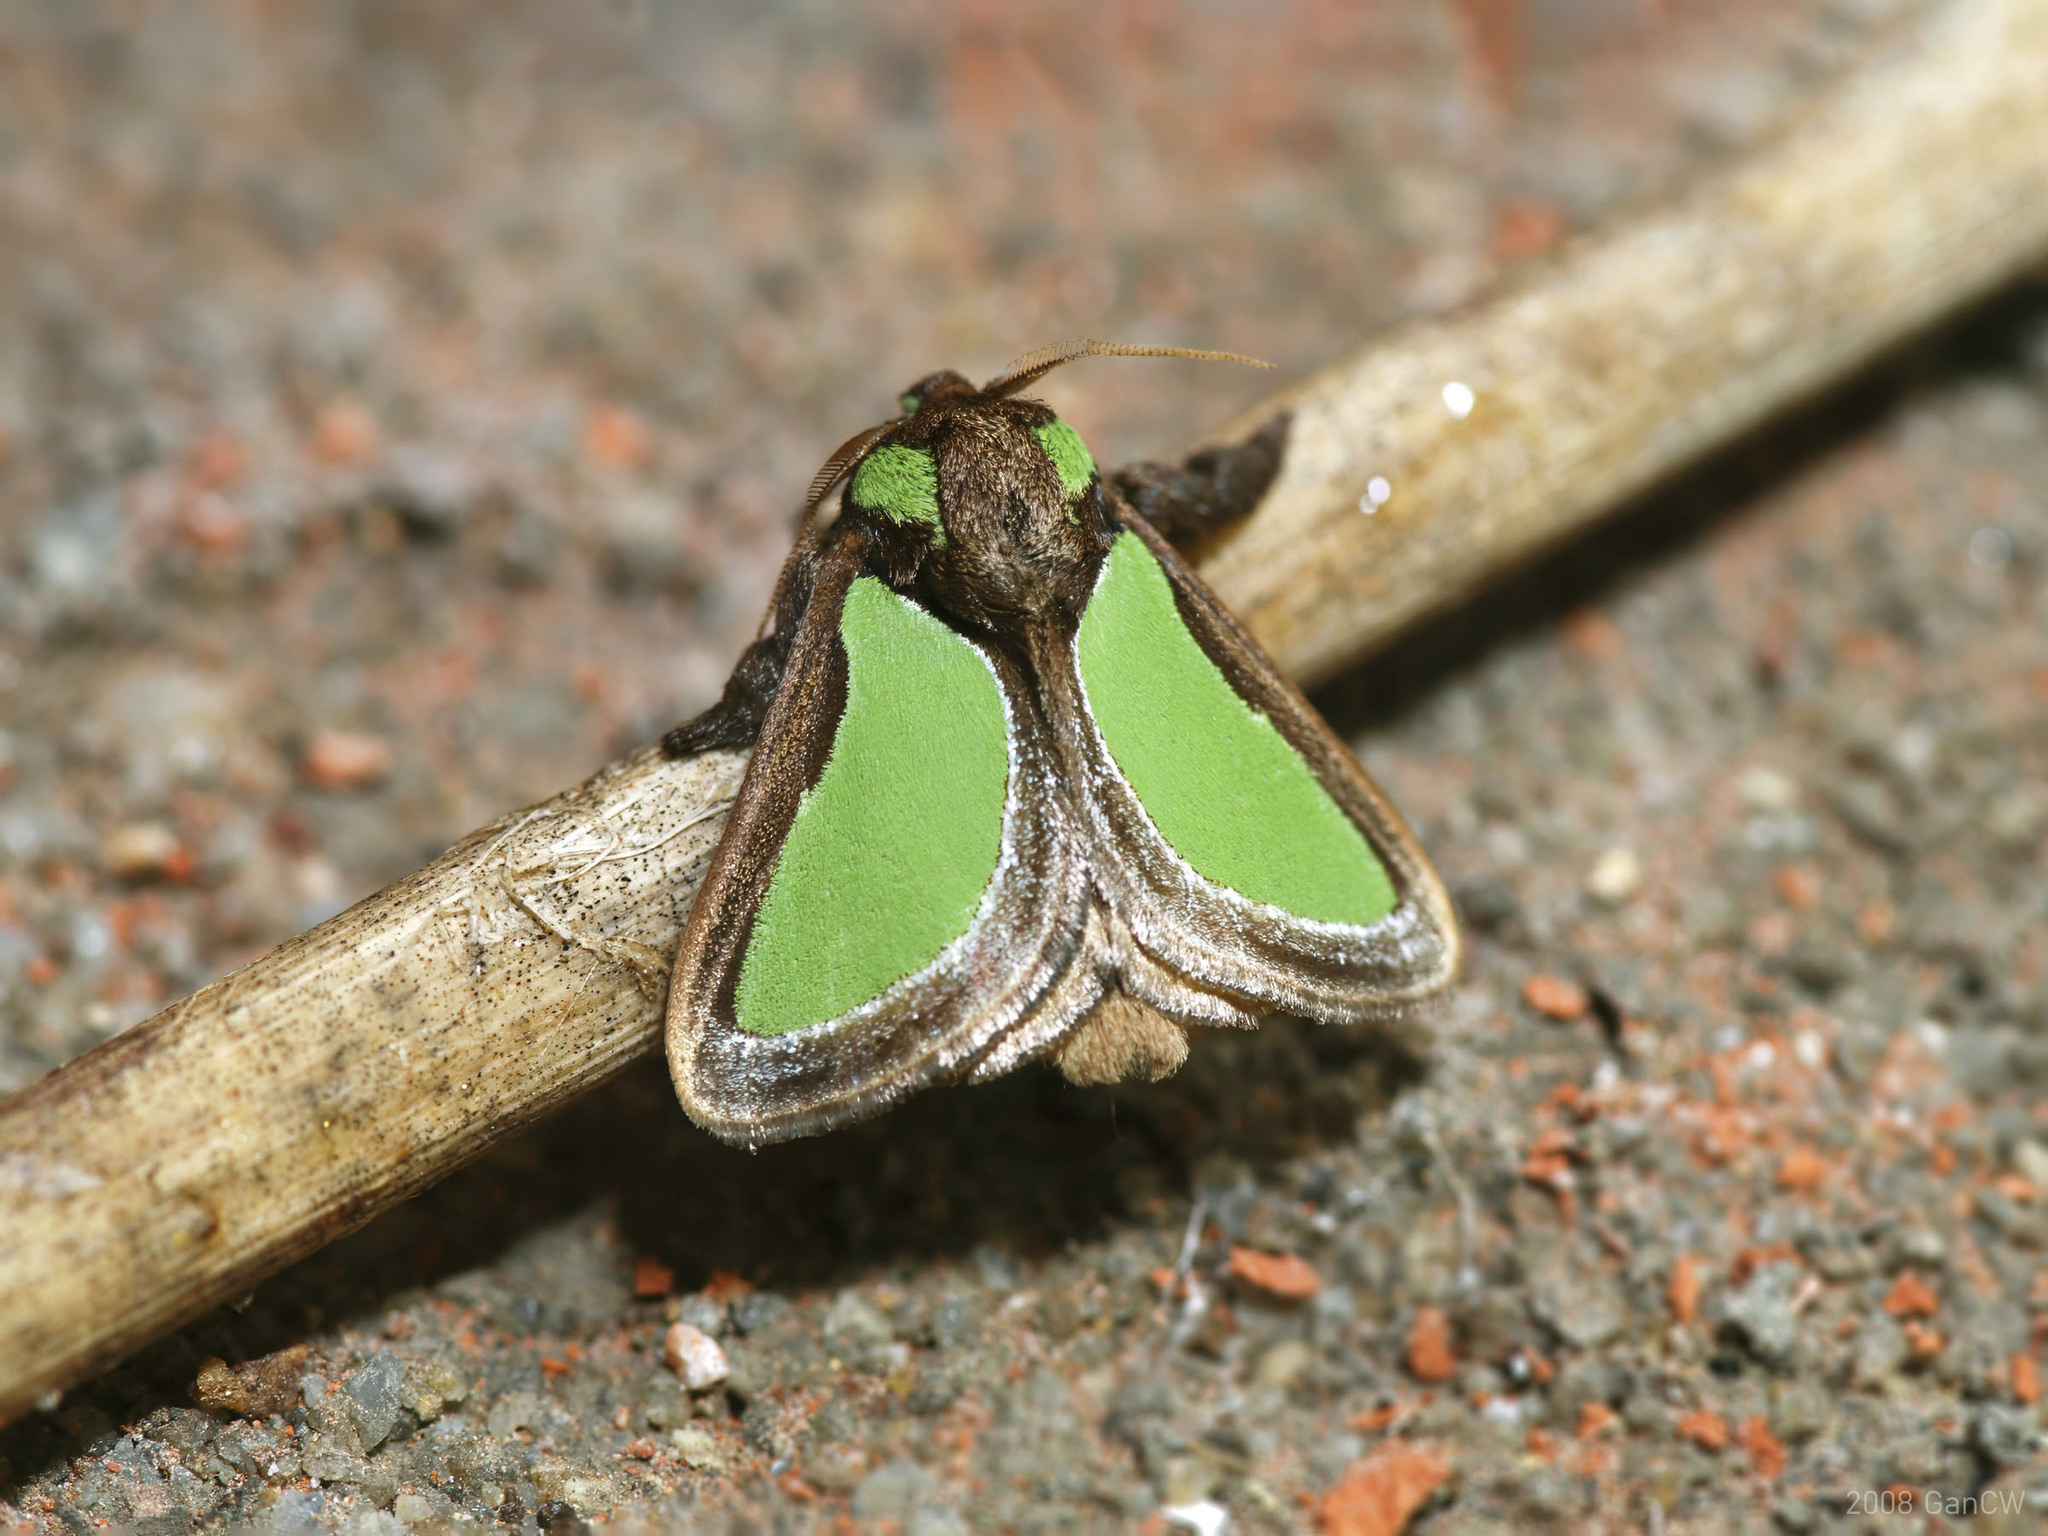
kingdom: Animalia
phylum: Arthropoda
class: Insecta
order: Lepidoptera
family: Limacodidae
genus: Parasa
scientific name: Parasa darma
